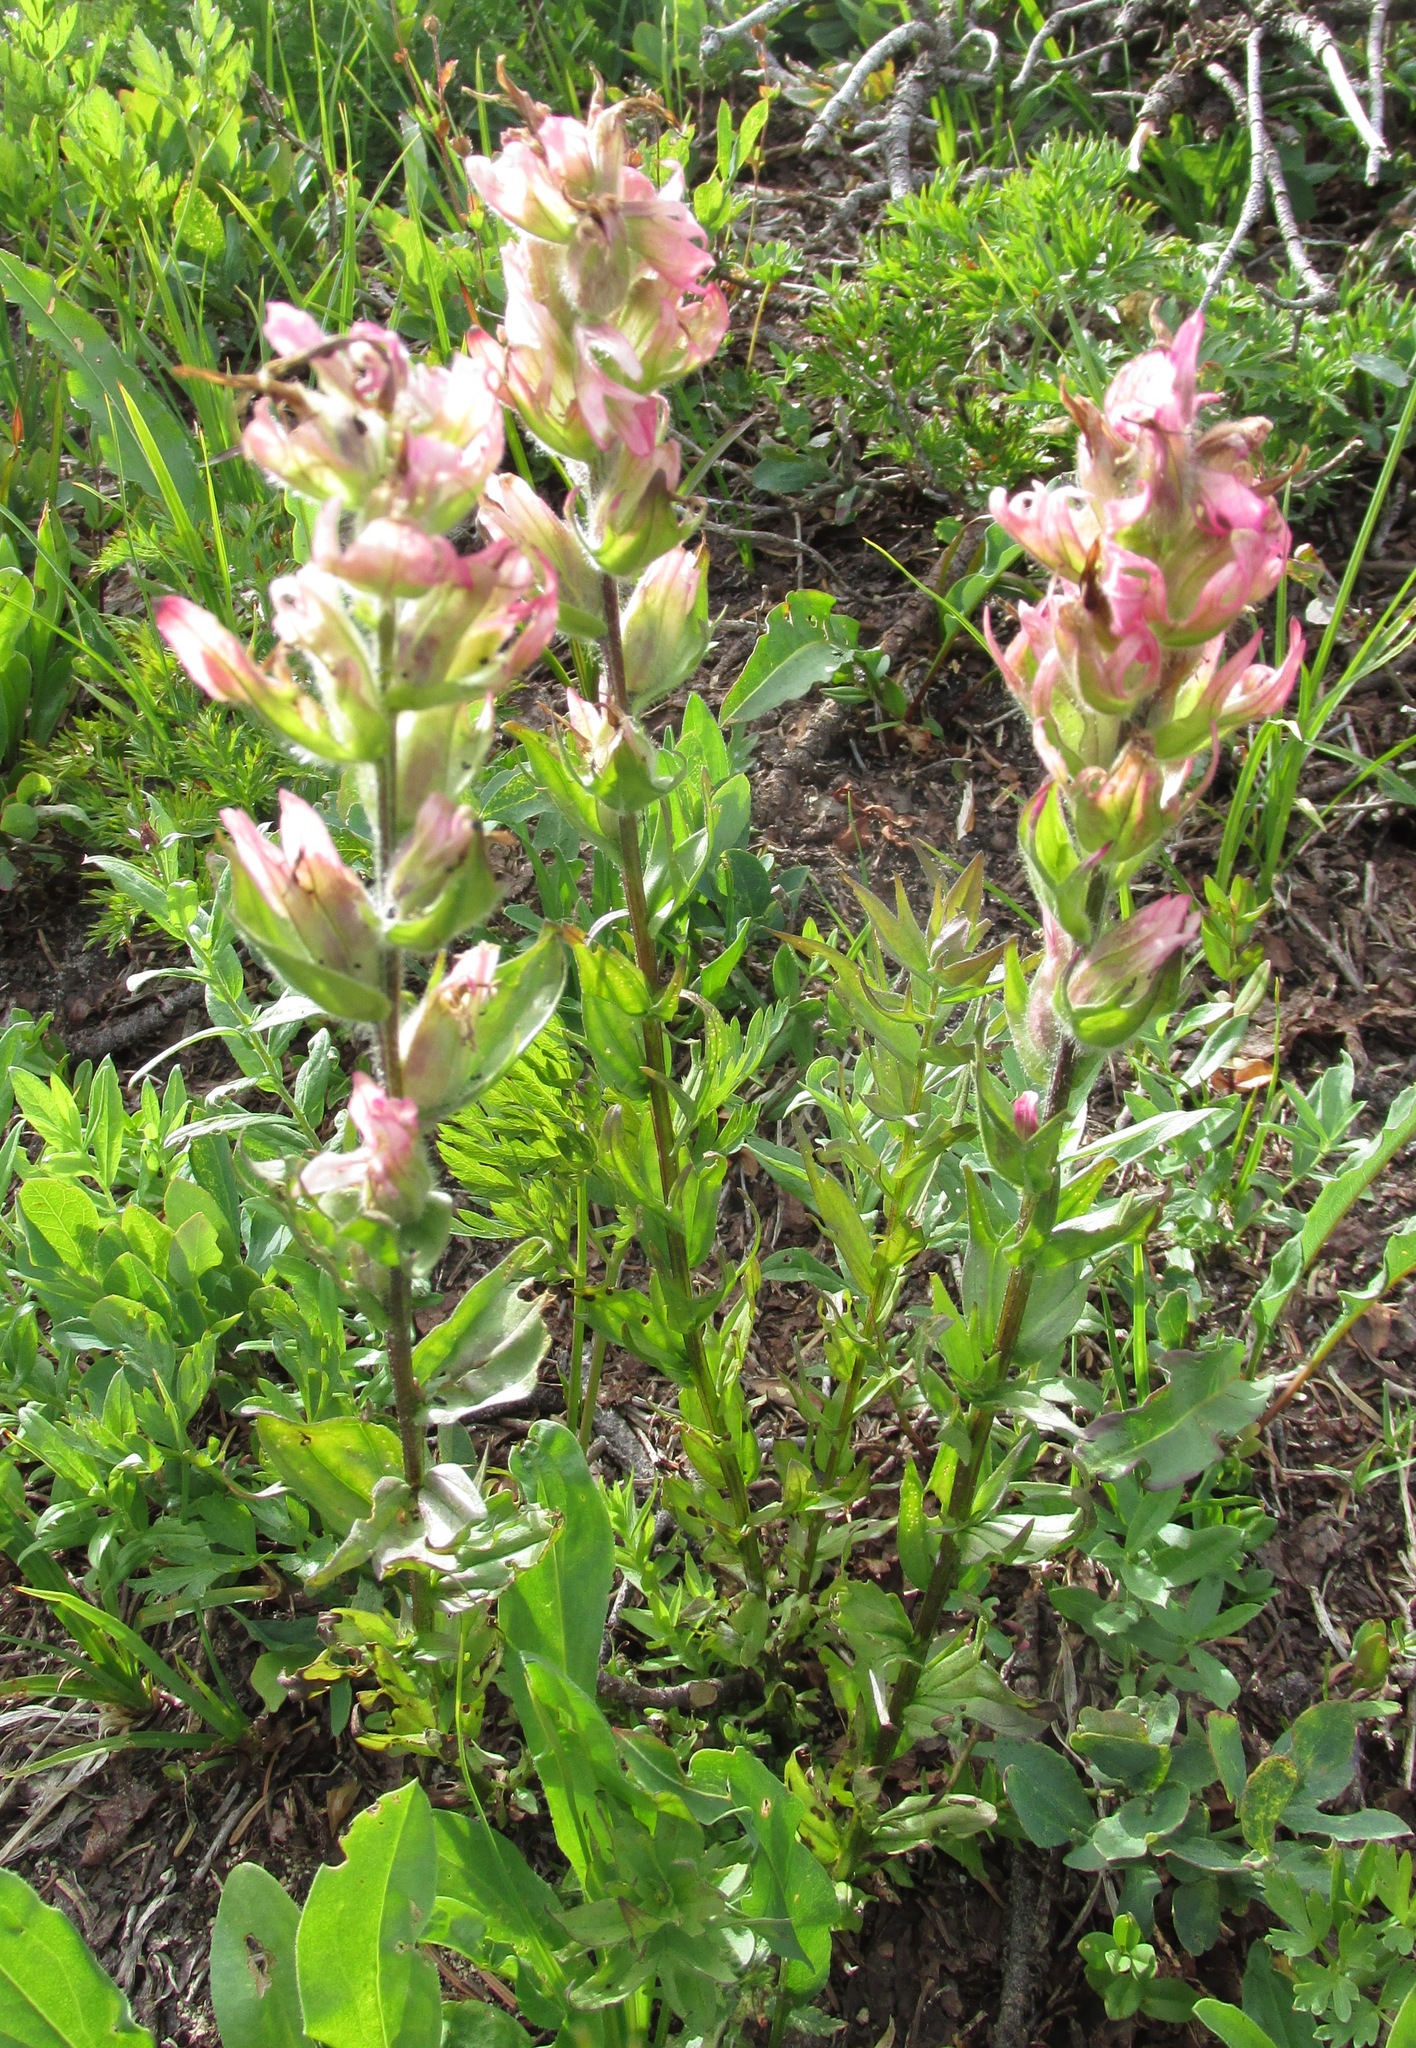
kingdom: Plantae
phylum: Tracheophyta
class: Magnoliopsida
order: Lamiales
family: Orobanchaceae
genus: Castilleja
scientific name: Castilleja parviflora
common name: Mountain paintbrush
